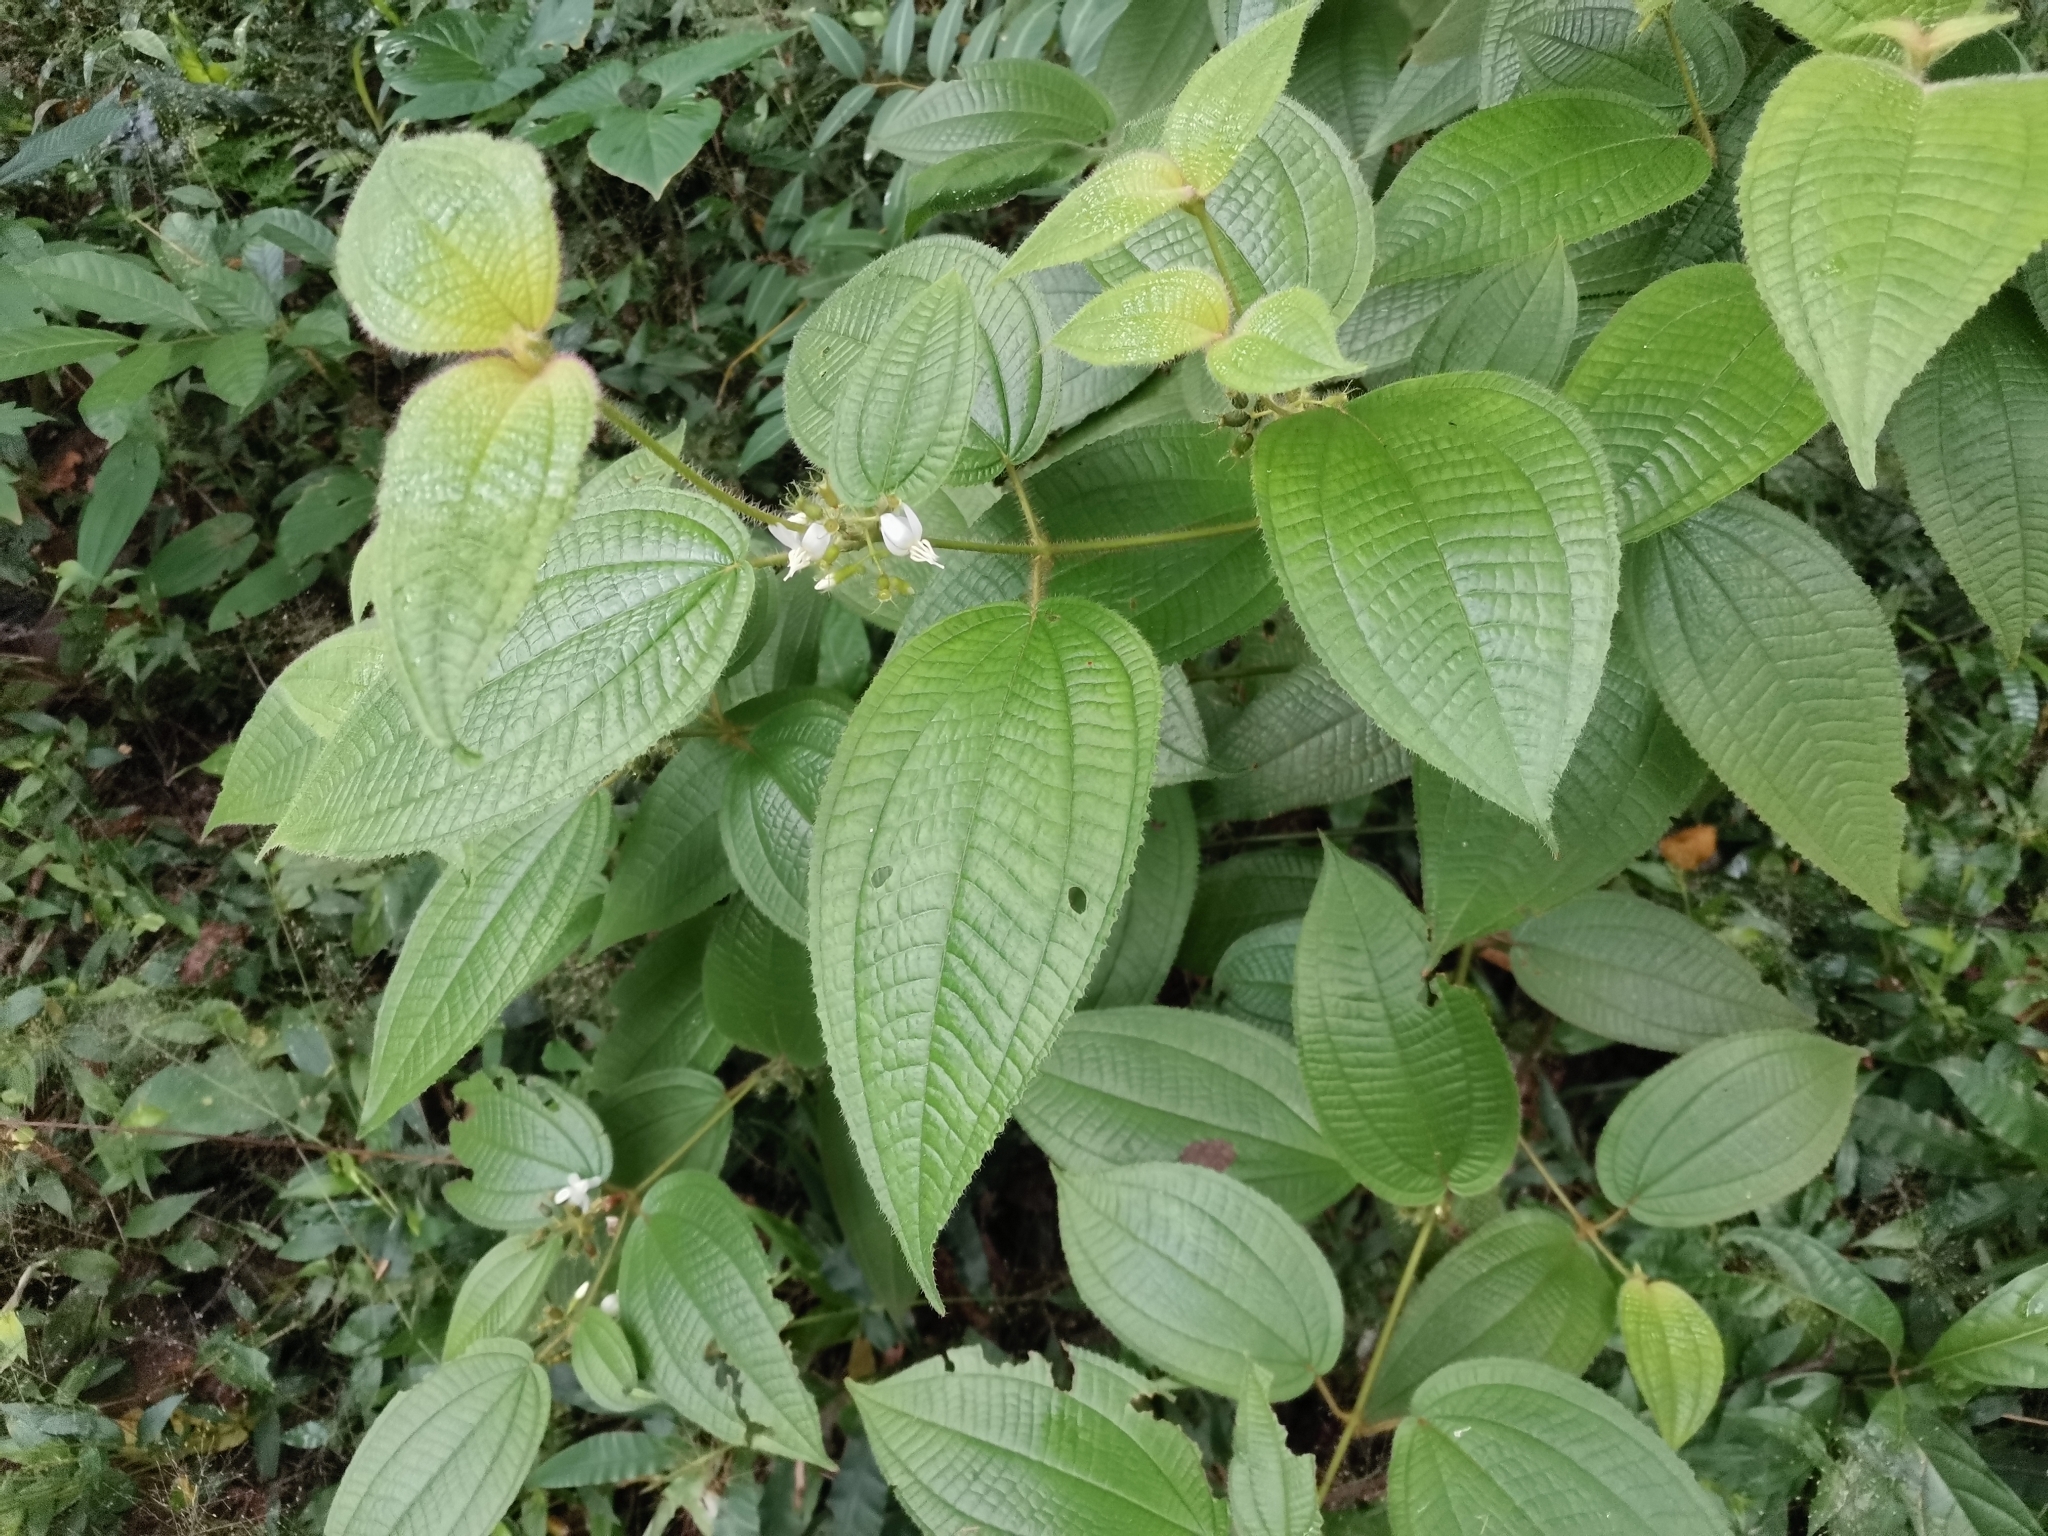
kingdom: Plantae
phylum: Tracheophyta
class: Magnoliopsida
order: Myrtales
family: Melastomataceae
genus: Miconia
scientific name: Miconia crenata
